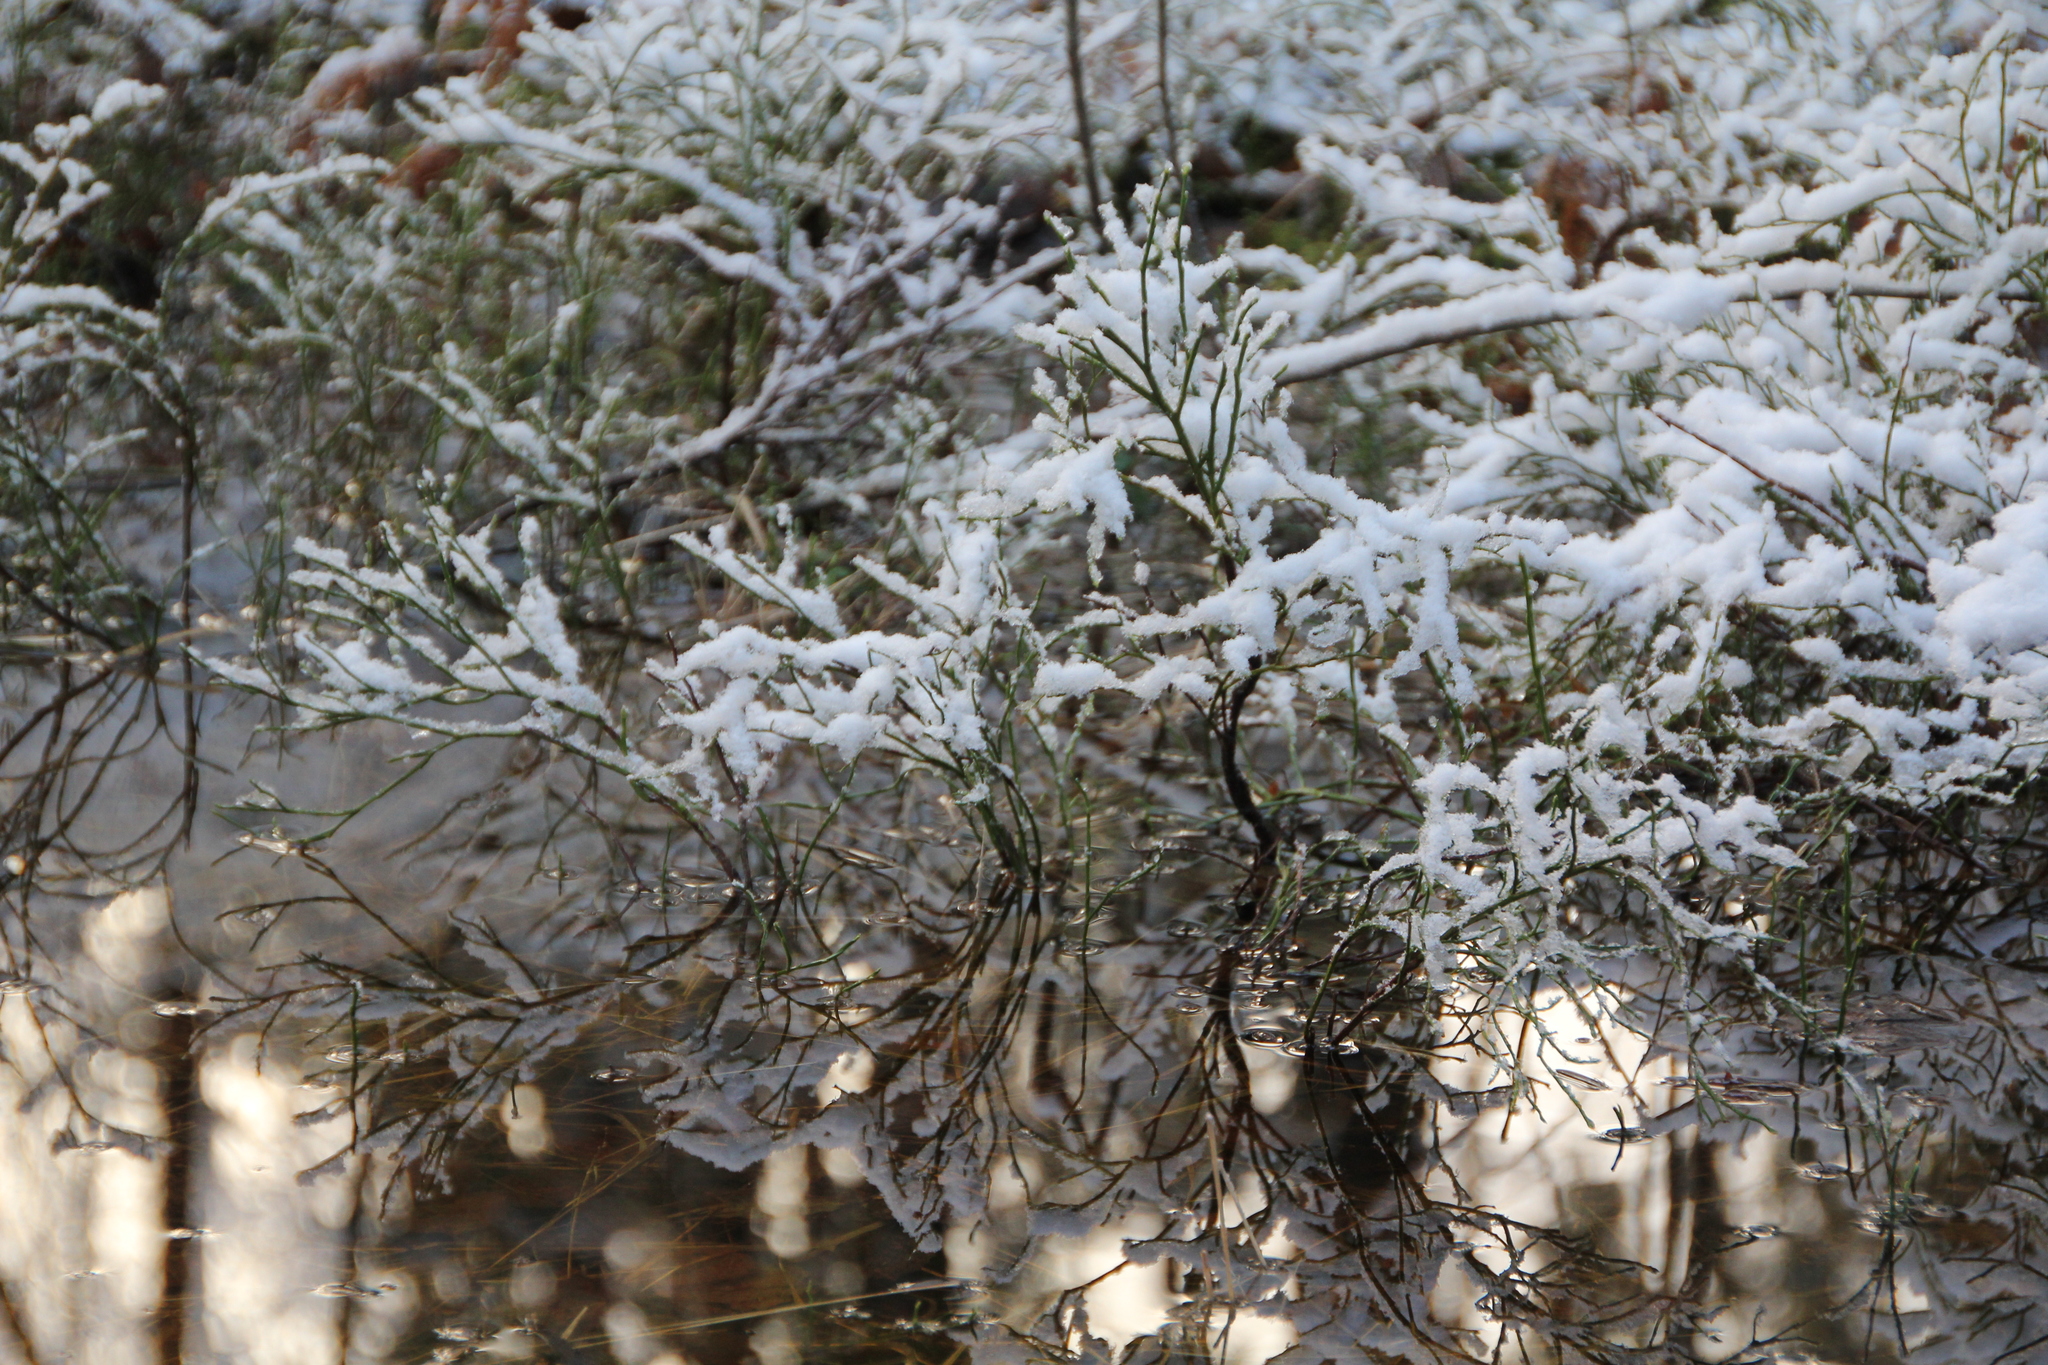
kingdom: Plantae
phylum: Tracheophyta
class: Magnoliopsida
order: Ericales
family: Ericaceae
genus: Vaccinium
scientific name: Vaccinium myrtillus
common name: Bilberry
